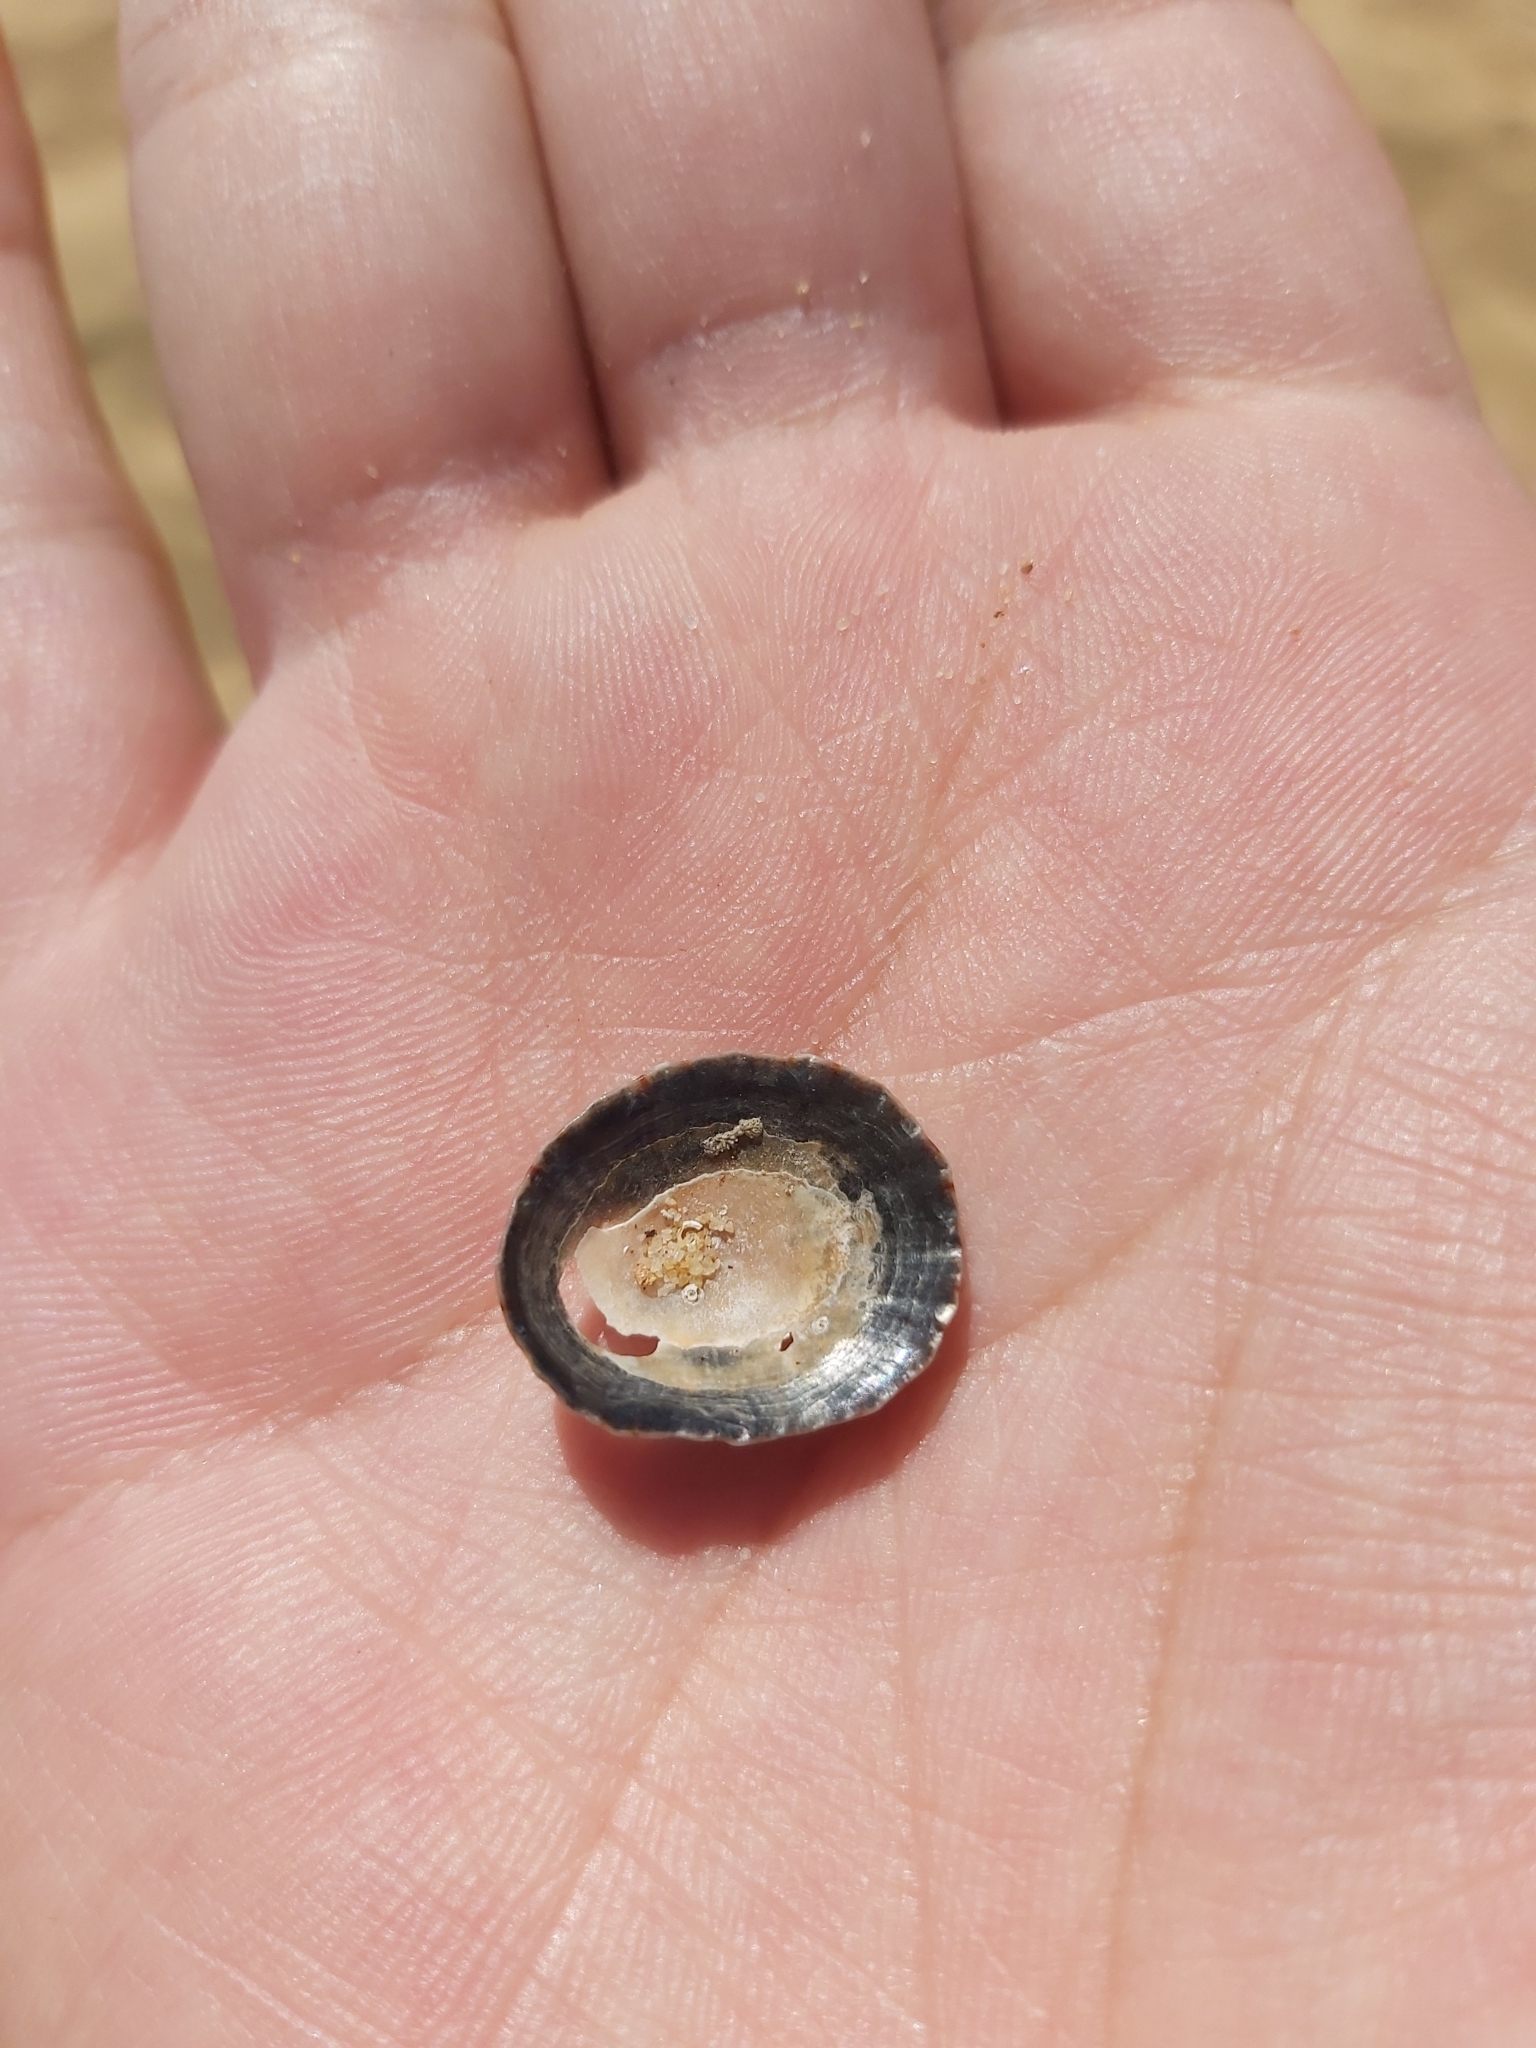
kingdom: Animalia
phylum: Mollusca
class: Gastropoda
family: Nacellidae
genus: Cellana
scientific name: Cellana tramoserica
